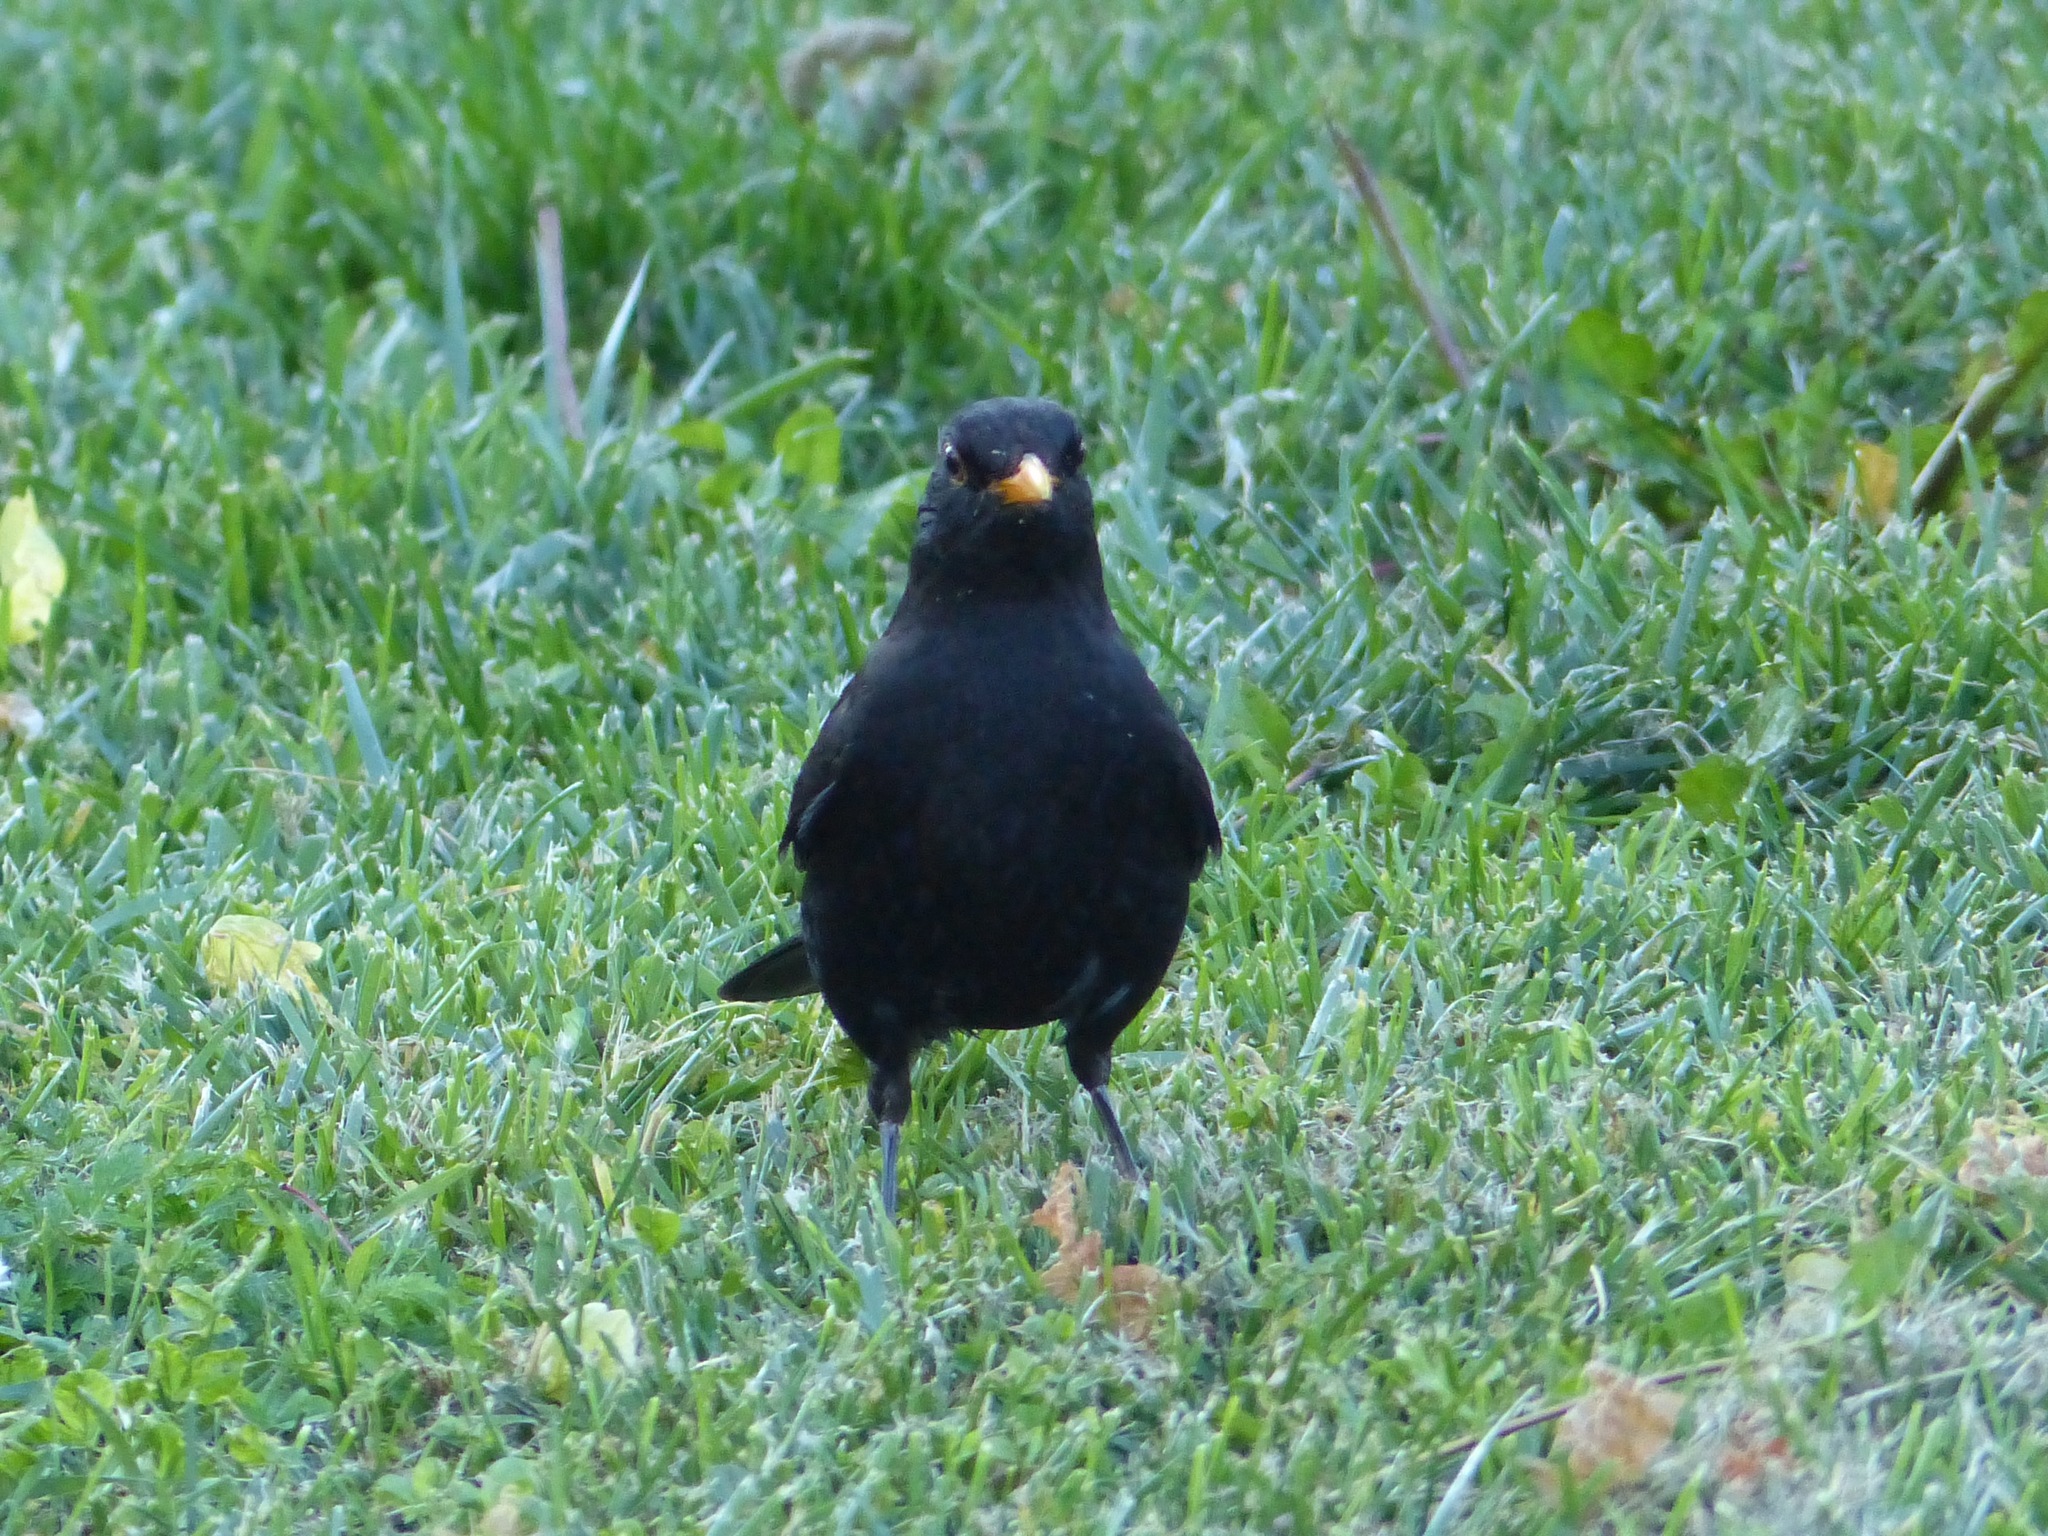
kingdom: Animalia
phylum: Chordata
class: Aves
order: Passeriformes
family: Turdidae
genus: Turdus
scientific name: Turdus merula
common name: Common blackbird
